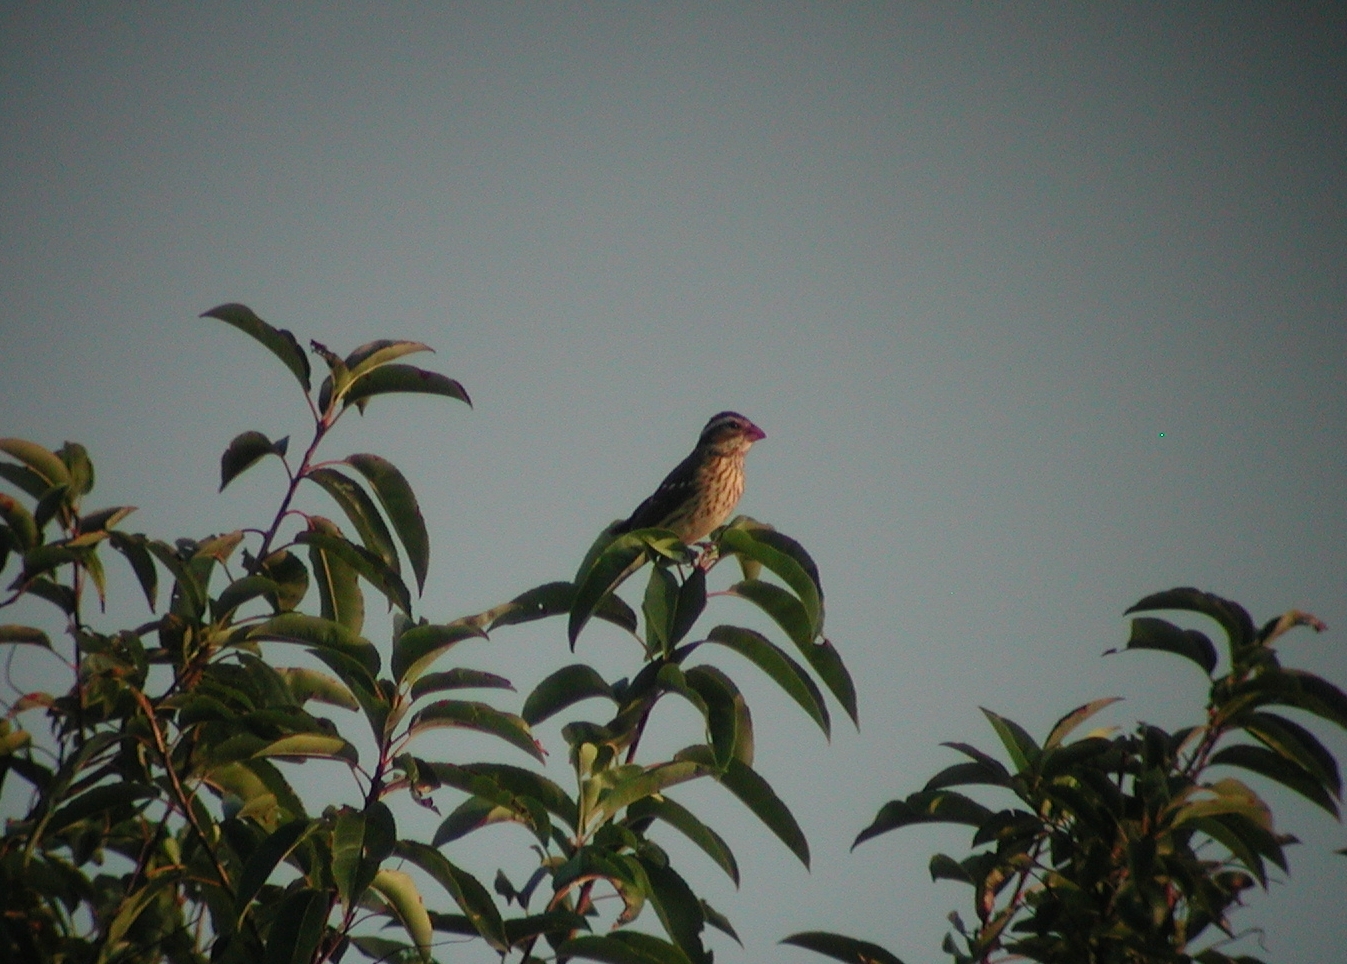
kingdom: Animalia
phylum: Chordata
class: Aves
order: Passeriformes
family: Cardinalidae
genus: Pheucticus
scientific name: Pheucticus ludovicianus
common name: Rose-breasted grosbeak
